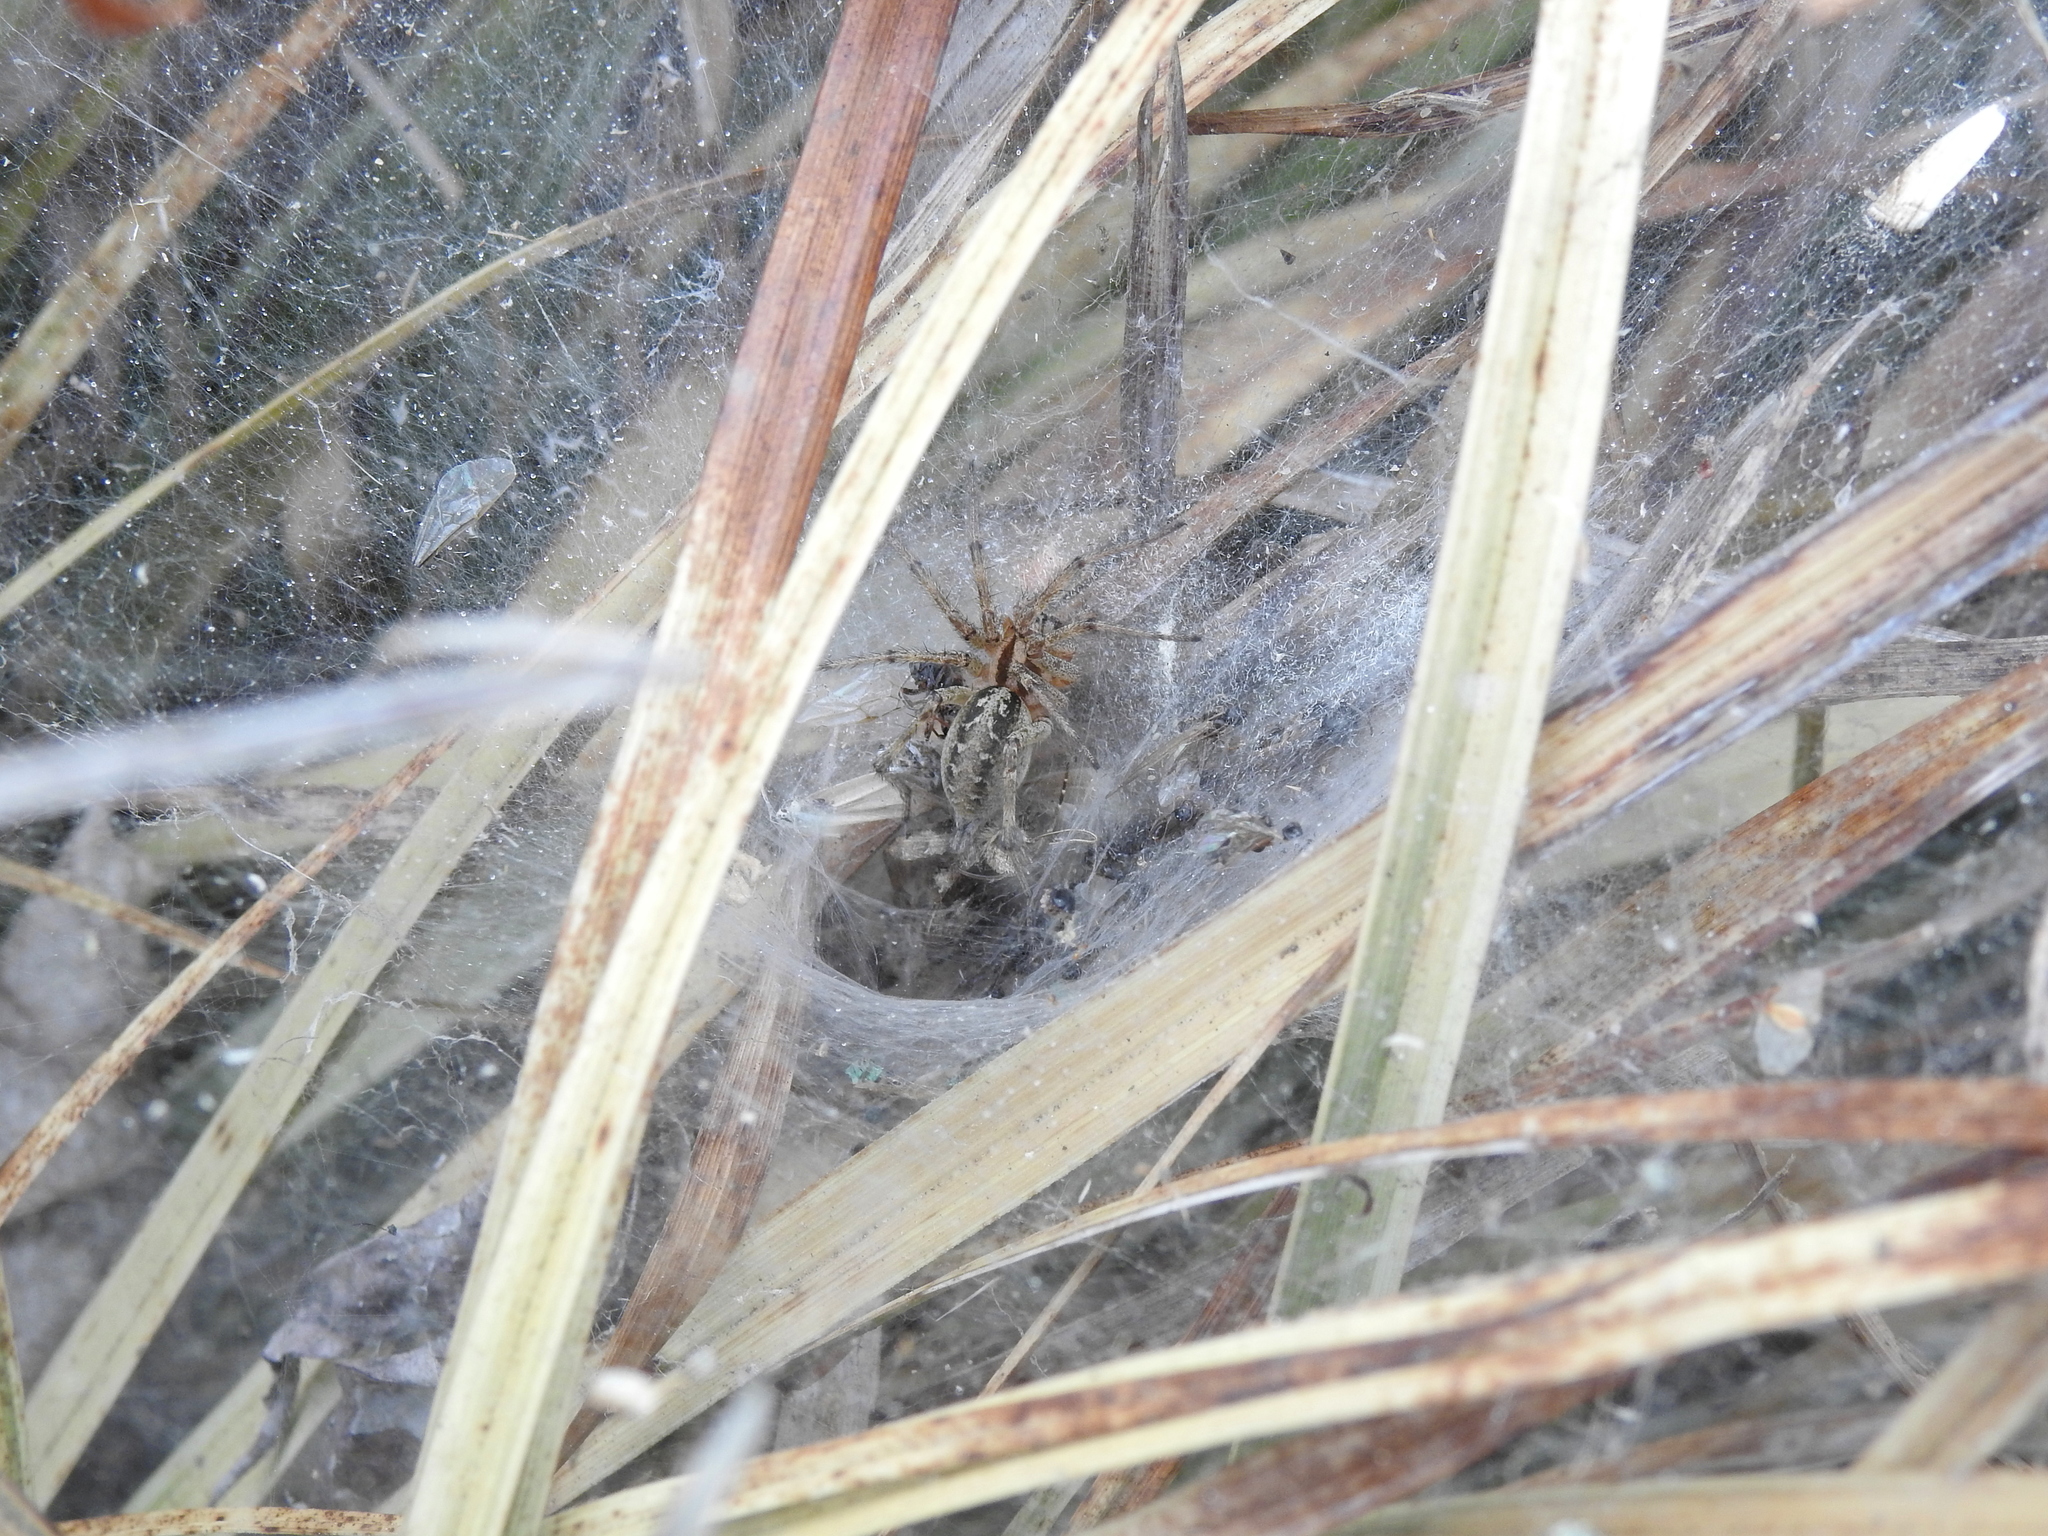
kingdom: Animalia
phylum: Arthropoda
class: Arachnida
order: Araneae
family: Agelenidae
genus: Agelena
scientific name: Agelena labyrinthica
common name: Labyrinth spider
